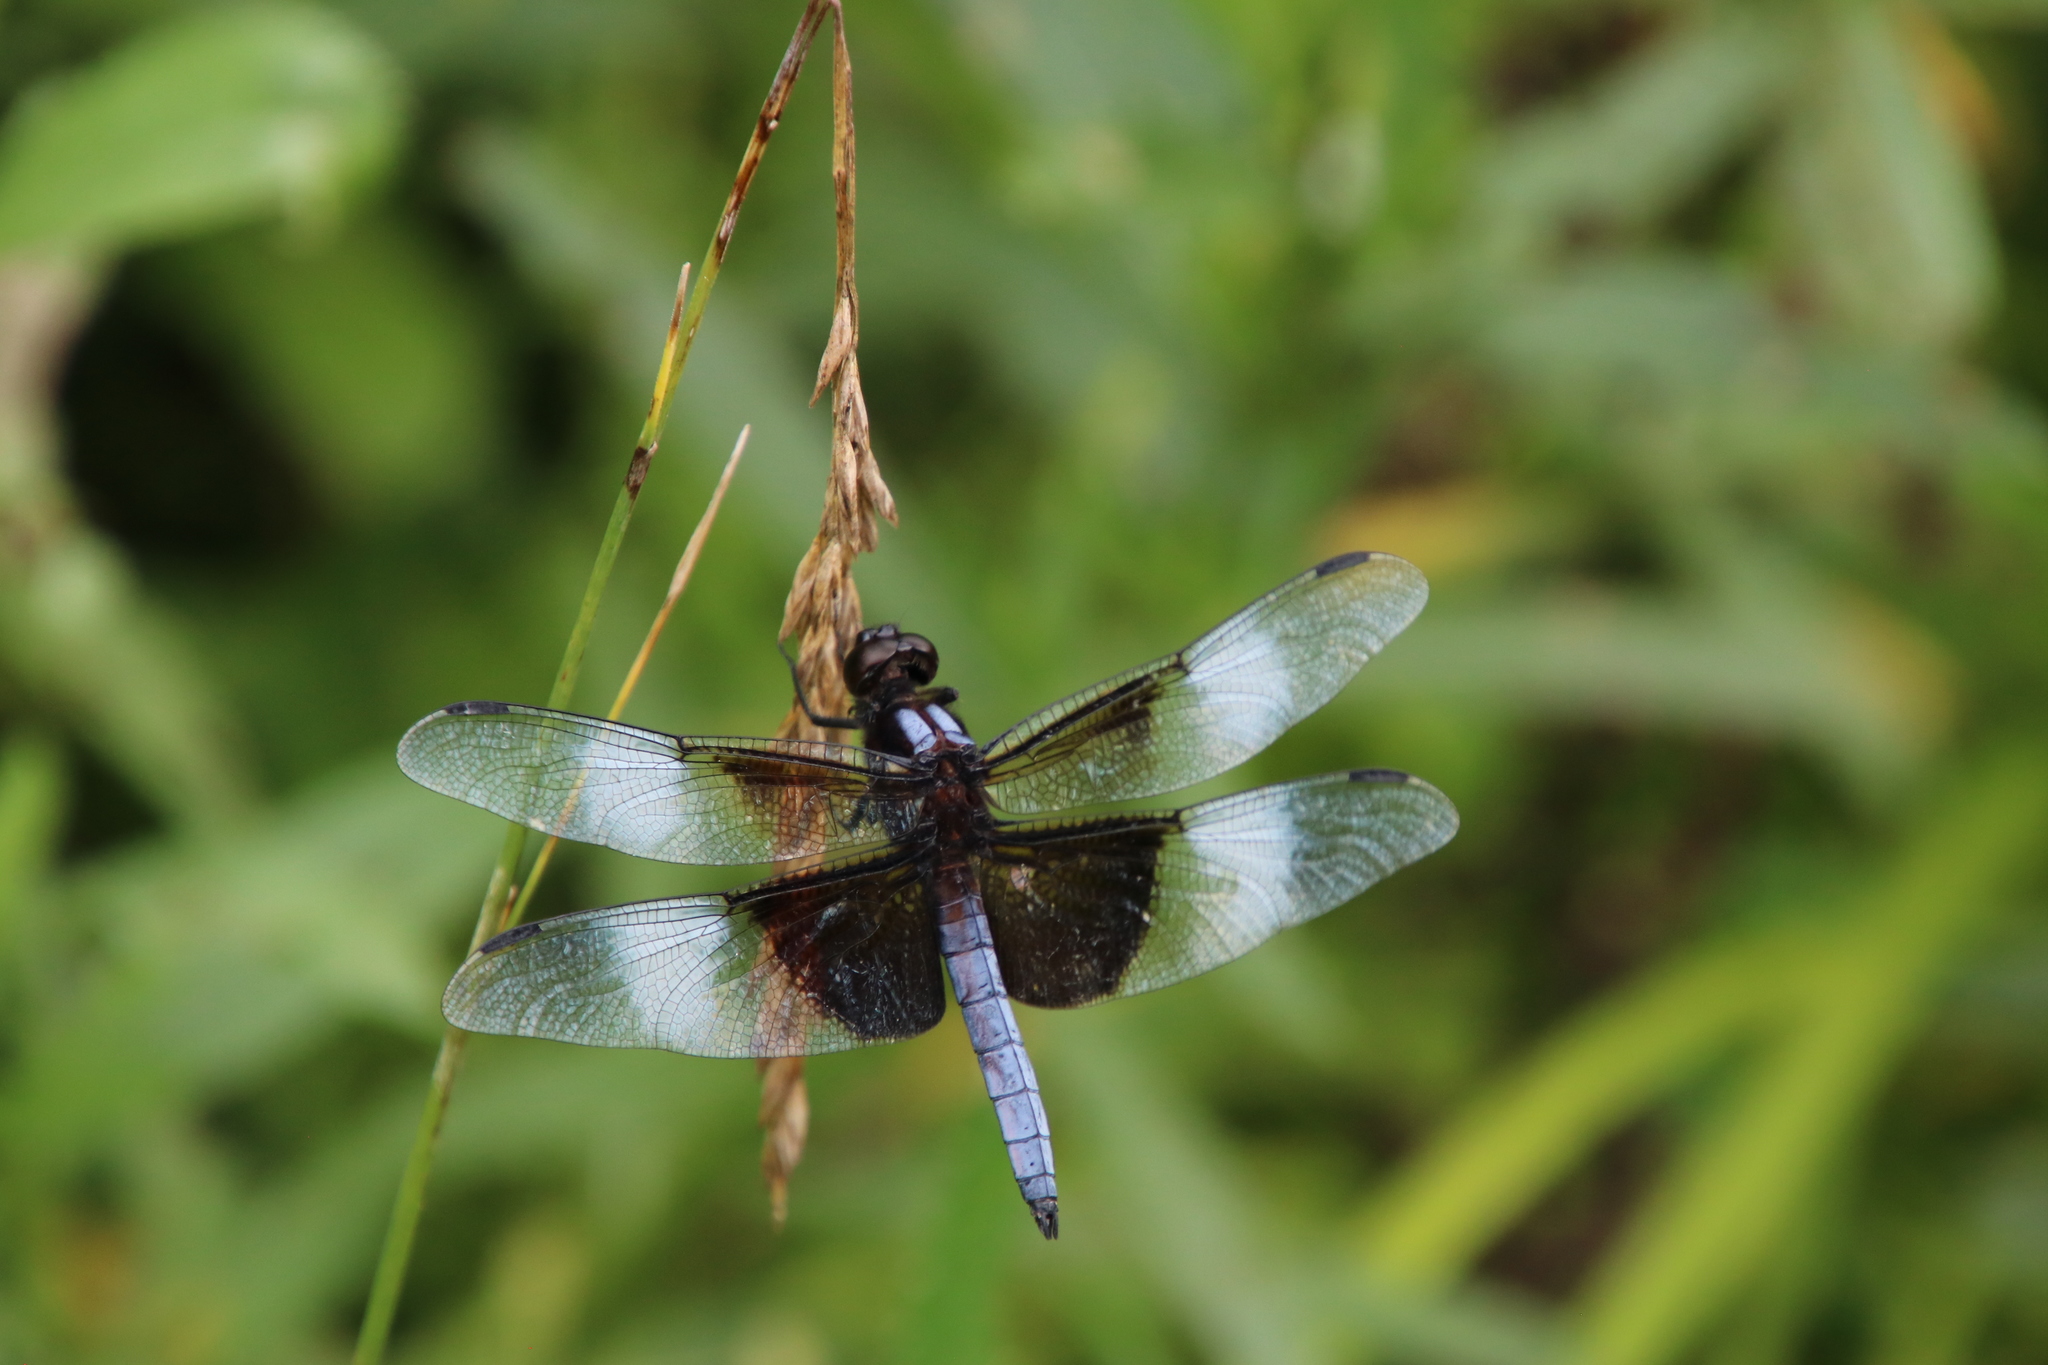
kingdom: Animalia
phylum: Arthropoda
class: Insecta
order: Odonata
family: Libellulidae
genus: Libellula
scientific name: Libellula luctuosa
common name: Widow skimmer
